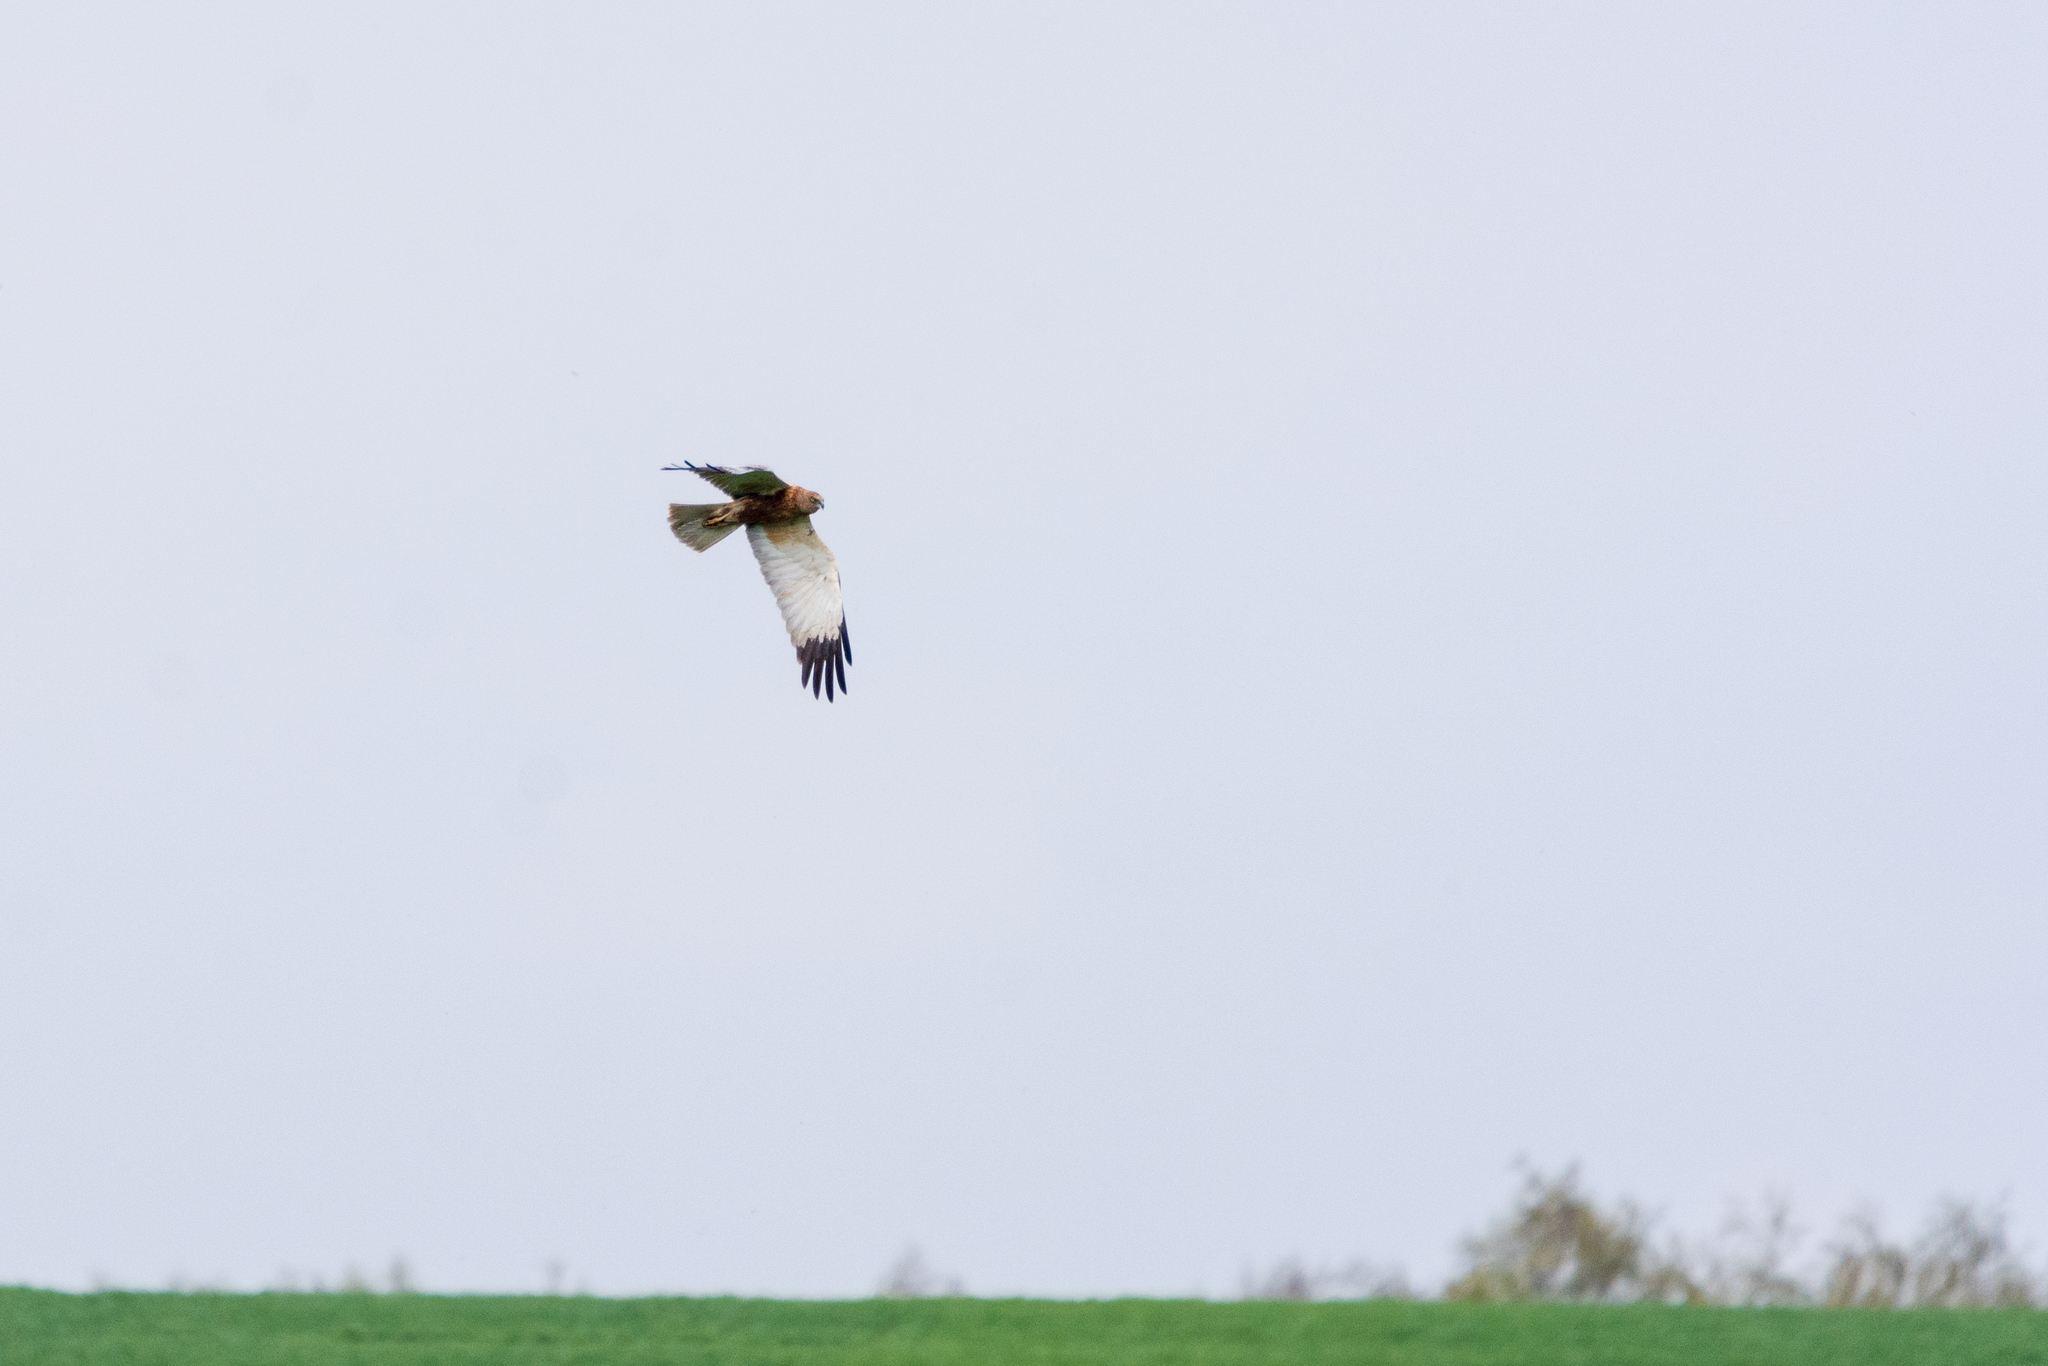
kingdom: Animalia
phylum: Chordata
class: Aves
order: Accipitriformes
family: Accipitridae
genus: Circus
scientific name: Circus aeruginosus
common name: Western marsh harrier
